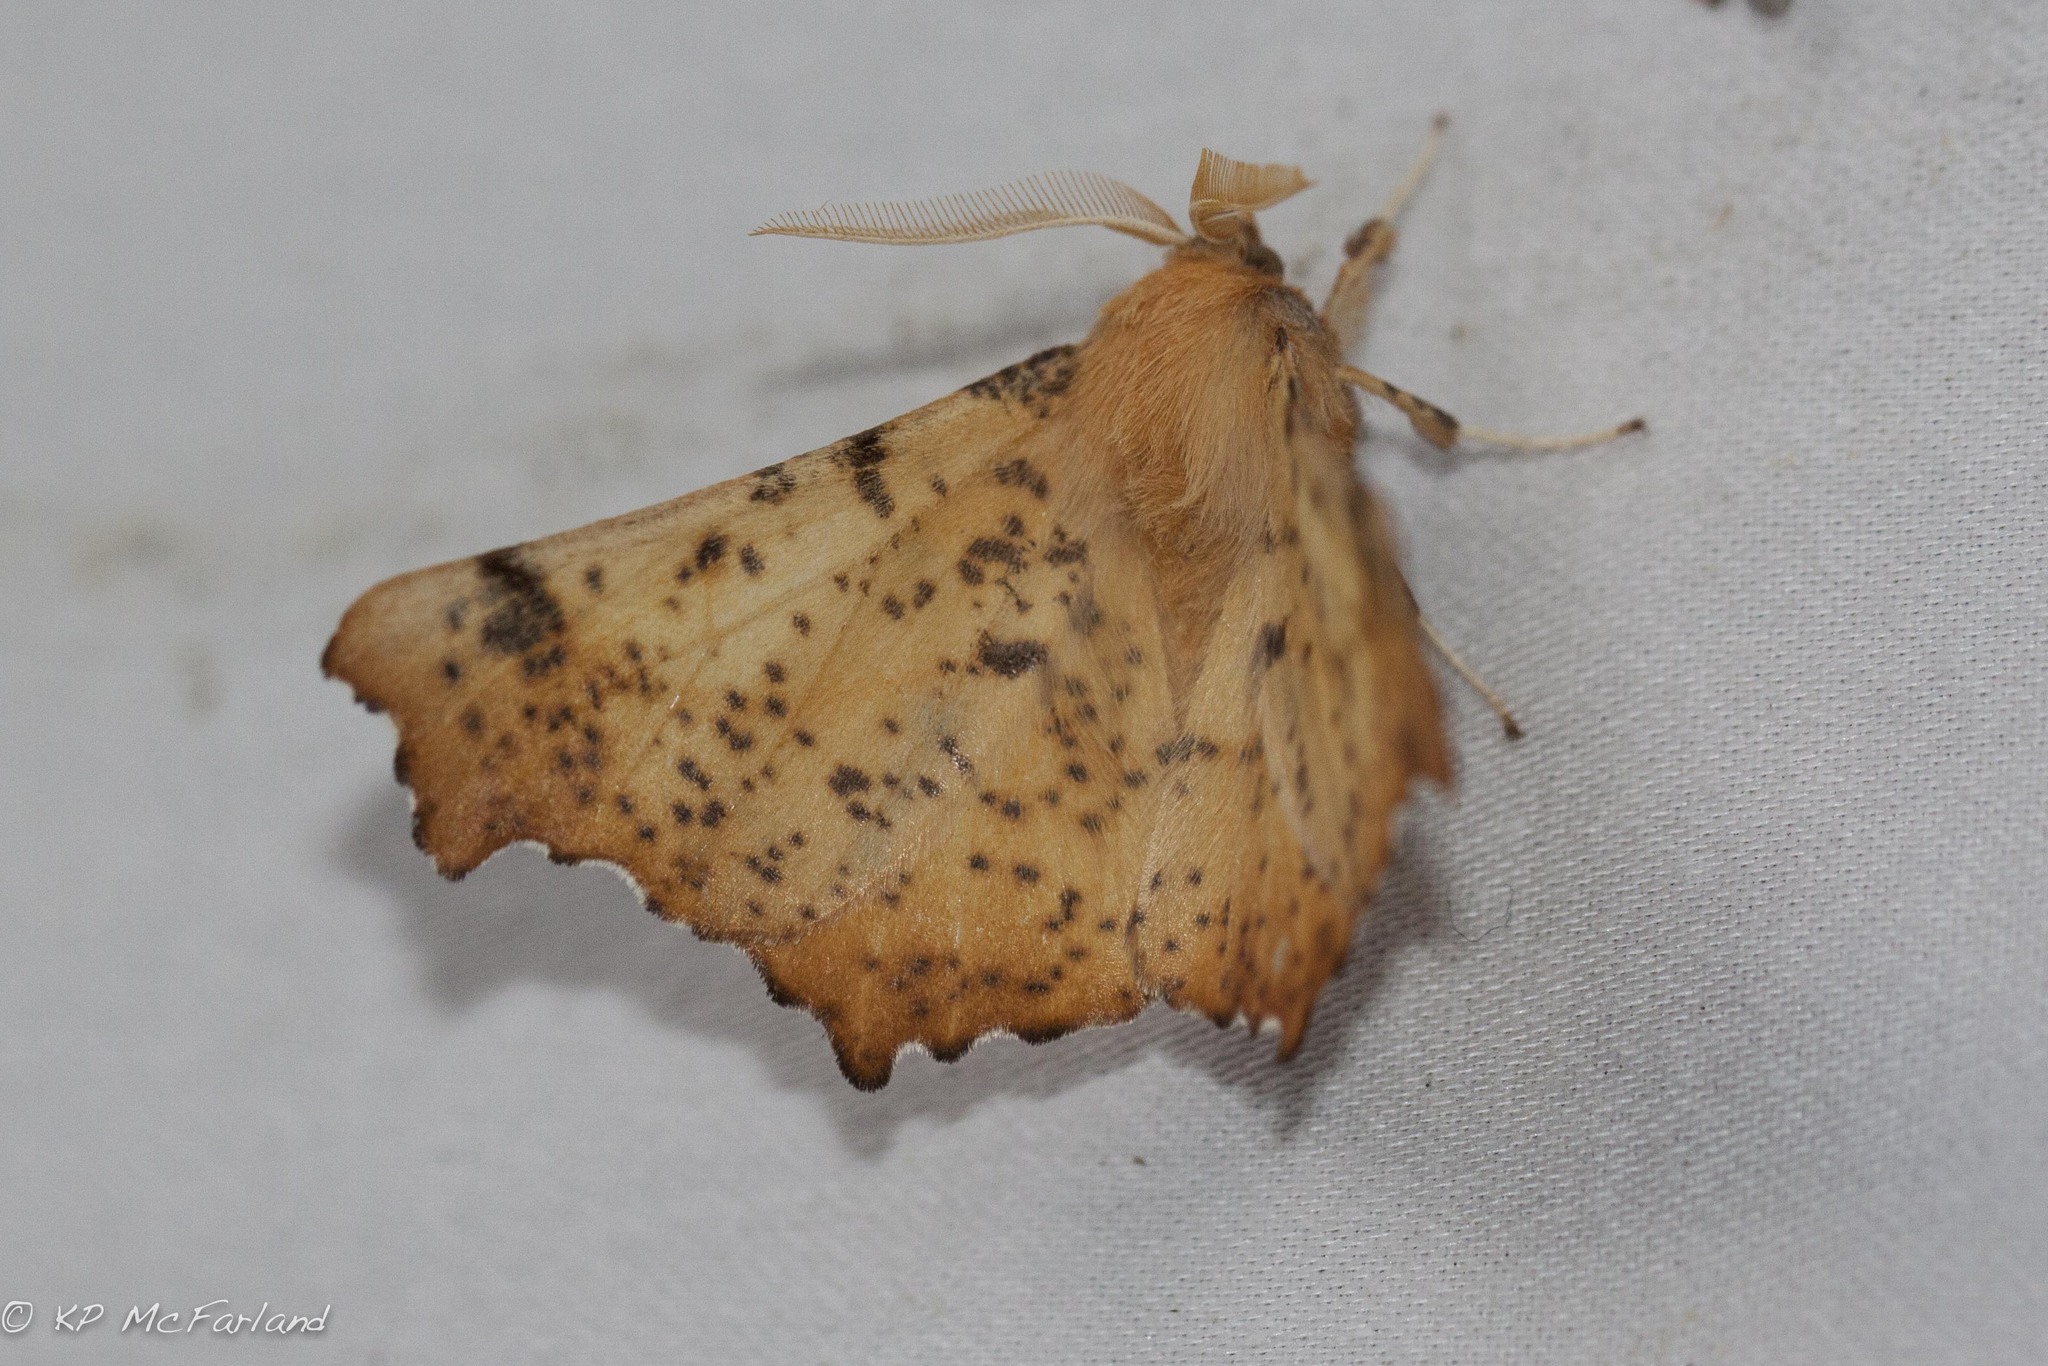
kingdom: Animalia
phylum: Arthropoda
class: Insecta
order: Lepidoptera
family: Geometridae
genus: Ennomos
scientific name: Ennomos magnaria
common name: Maple spanworm
